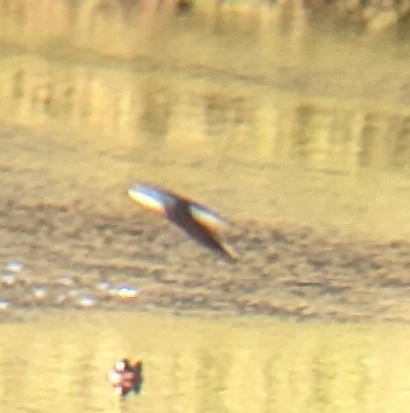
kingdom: Animalia
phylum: Chordata
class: Aves
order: Passeriformes
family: Hirundinidae
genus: Tachycineta
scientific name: Tachycineta bicolor
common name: Tree swallow
